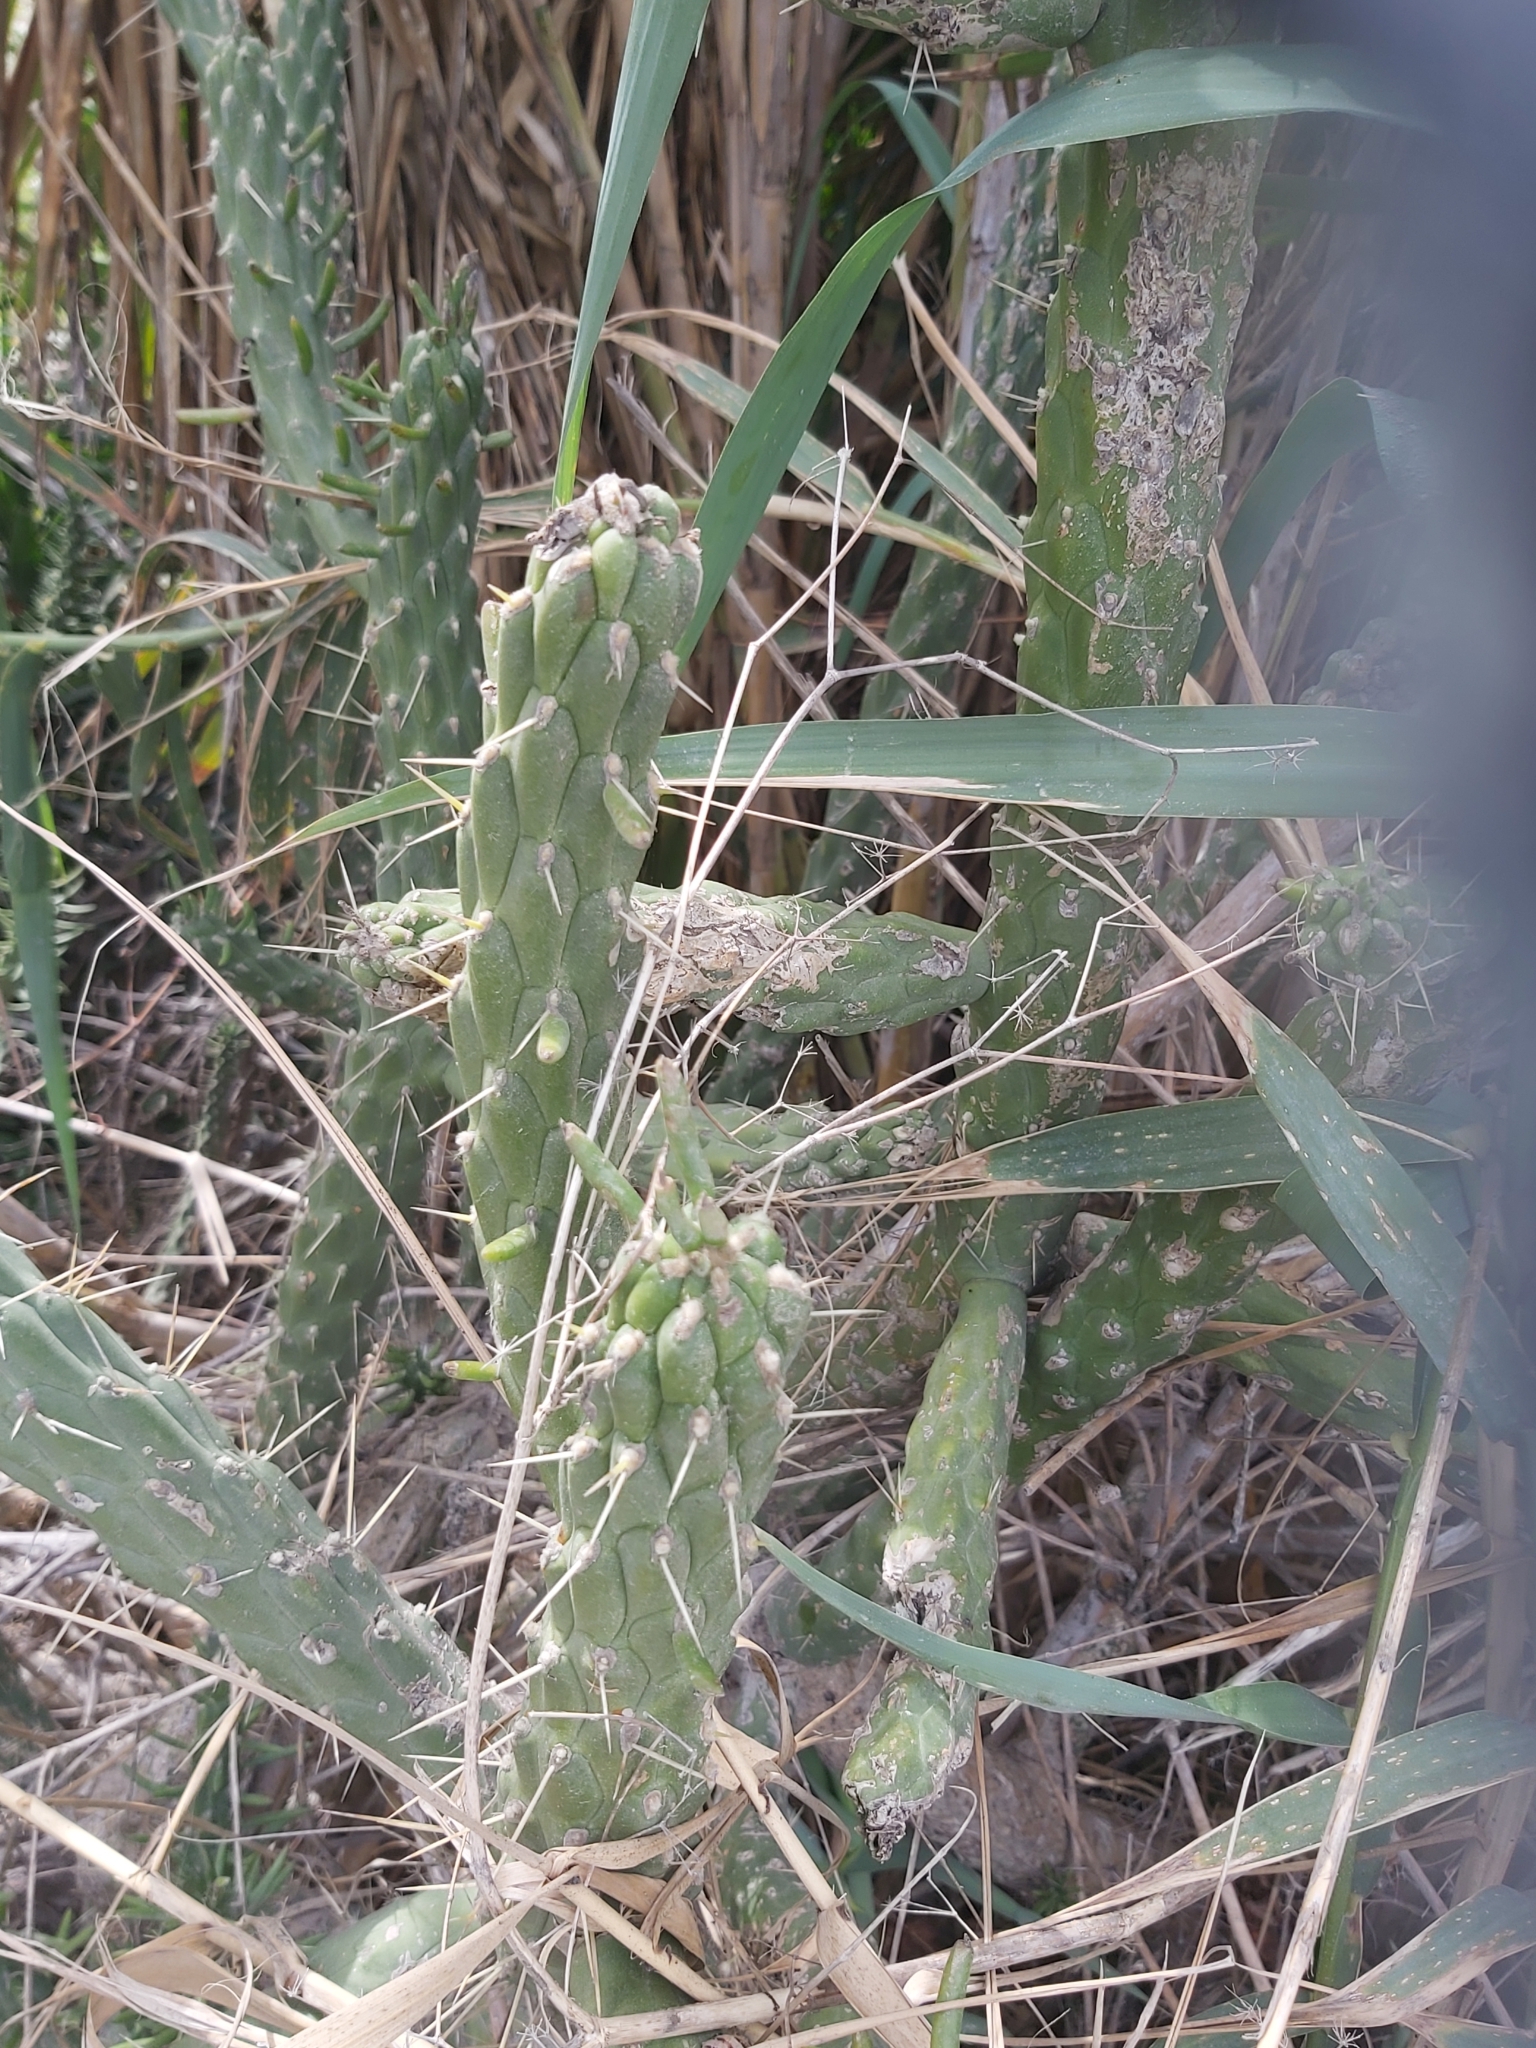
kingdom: Plantae
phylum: Tracheophyta
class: Magnoliopsida
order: Caryophyllales
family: Cactaceae
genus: Austrocylindropuntia
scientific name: Austrocylindropuntia subulata
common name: Eve's needle cactus
